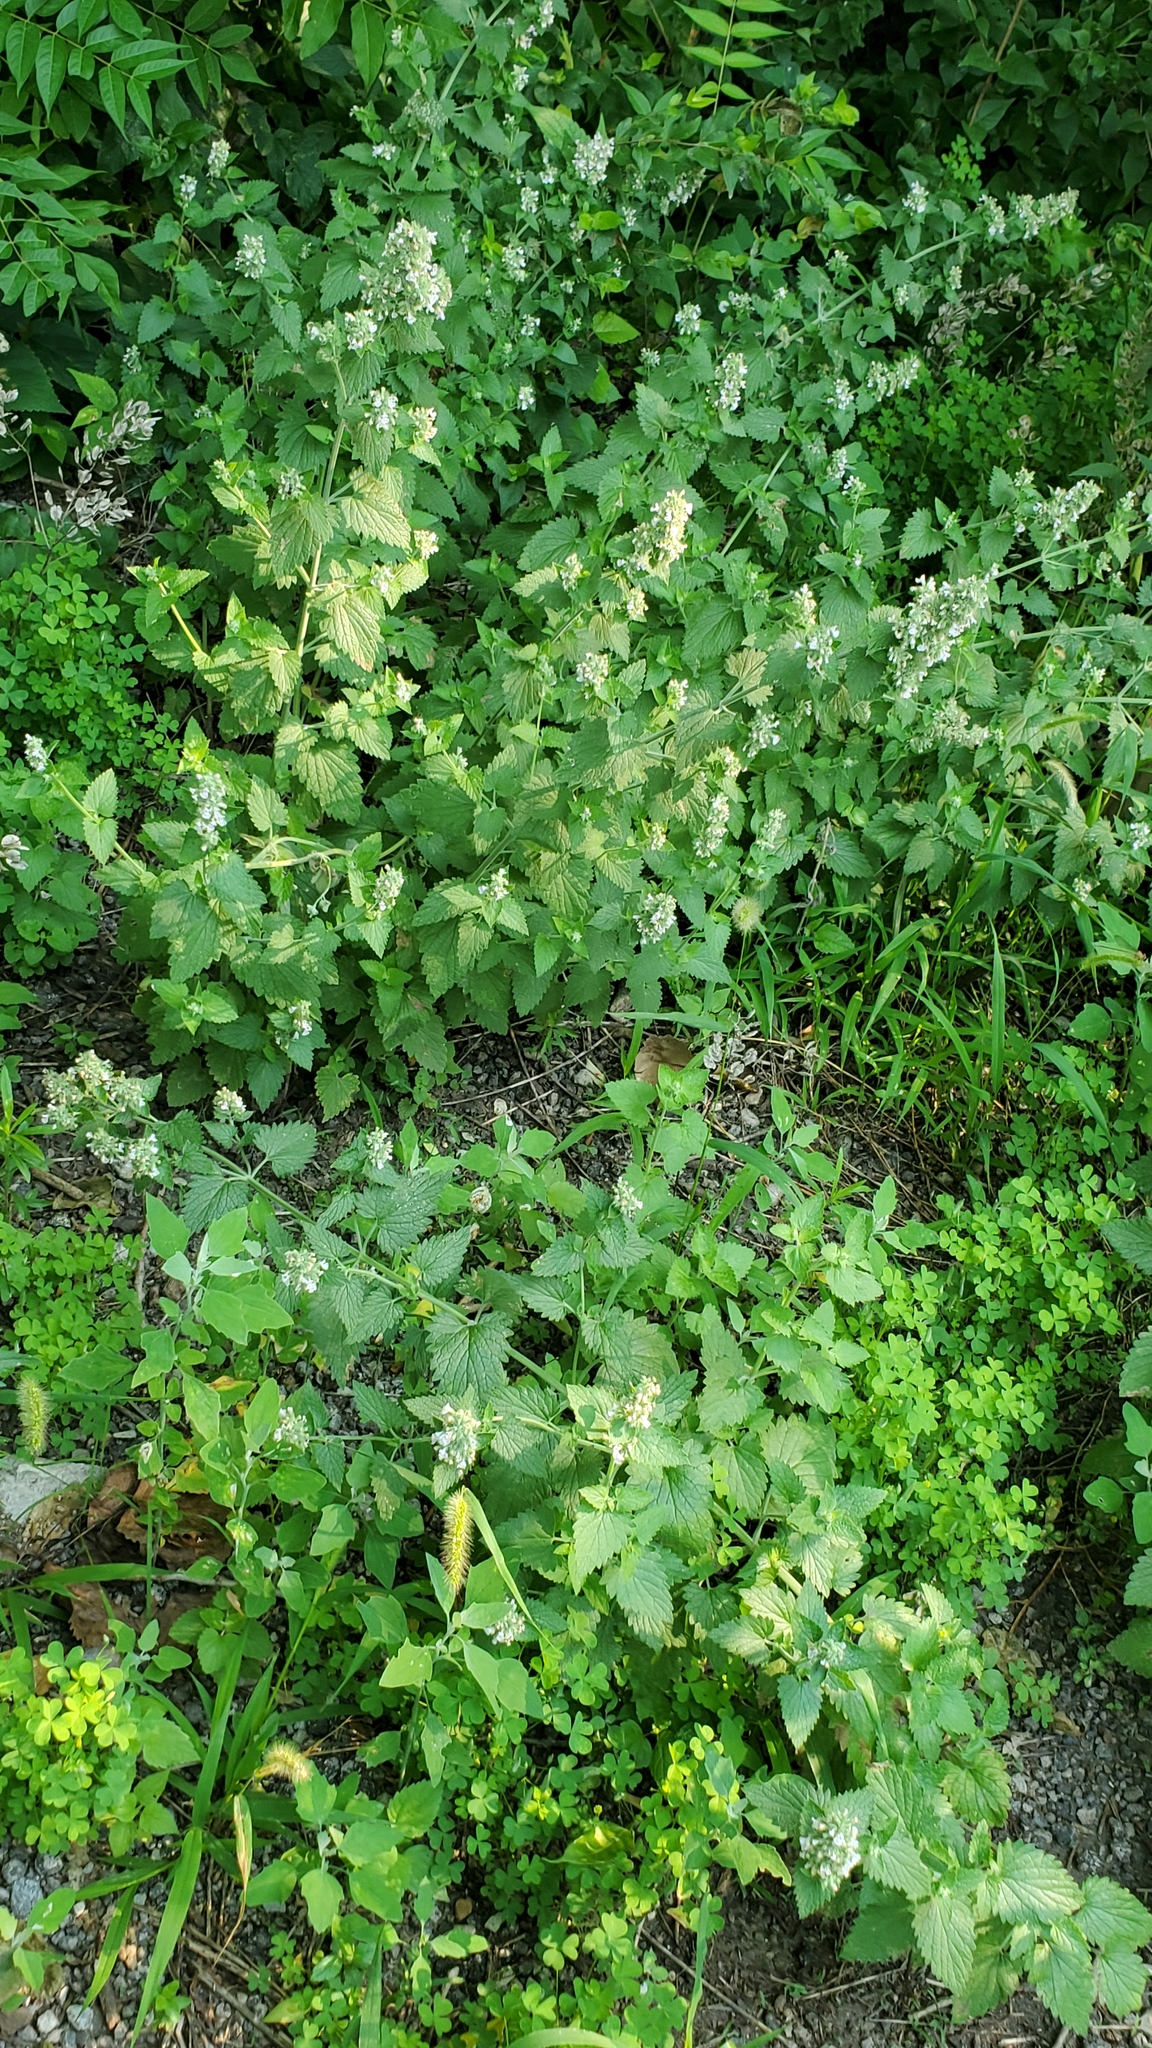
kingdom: Plantae
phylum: Tracheophyta
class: Magnoliopsida
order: Lamiales
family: Lamiaceae
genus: Nepeta
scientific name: Nepeta cataria
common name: Catnip
